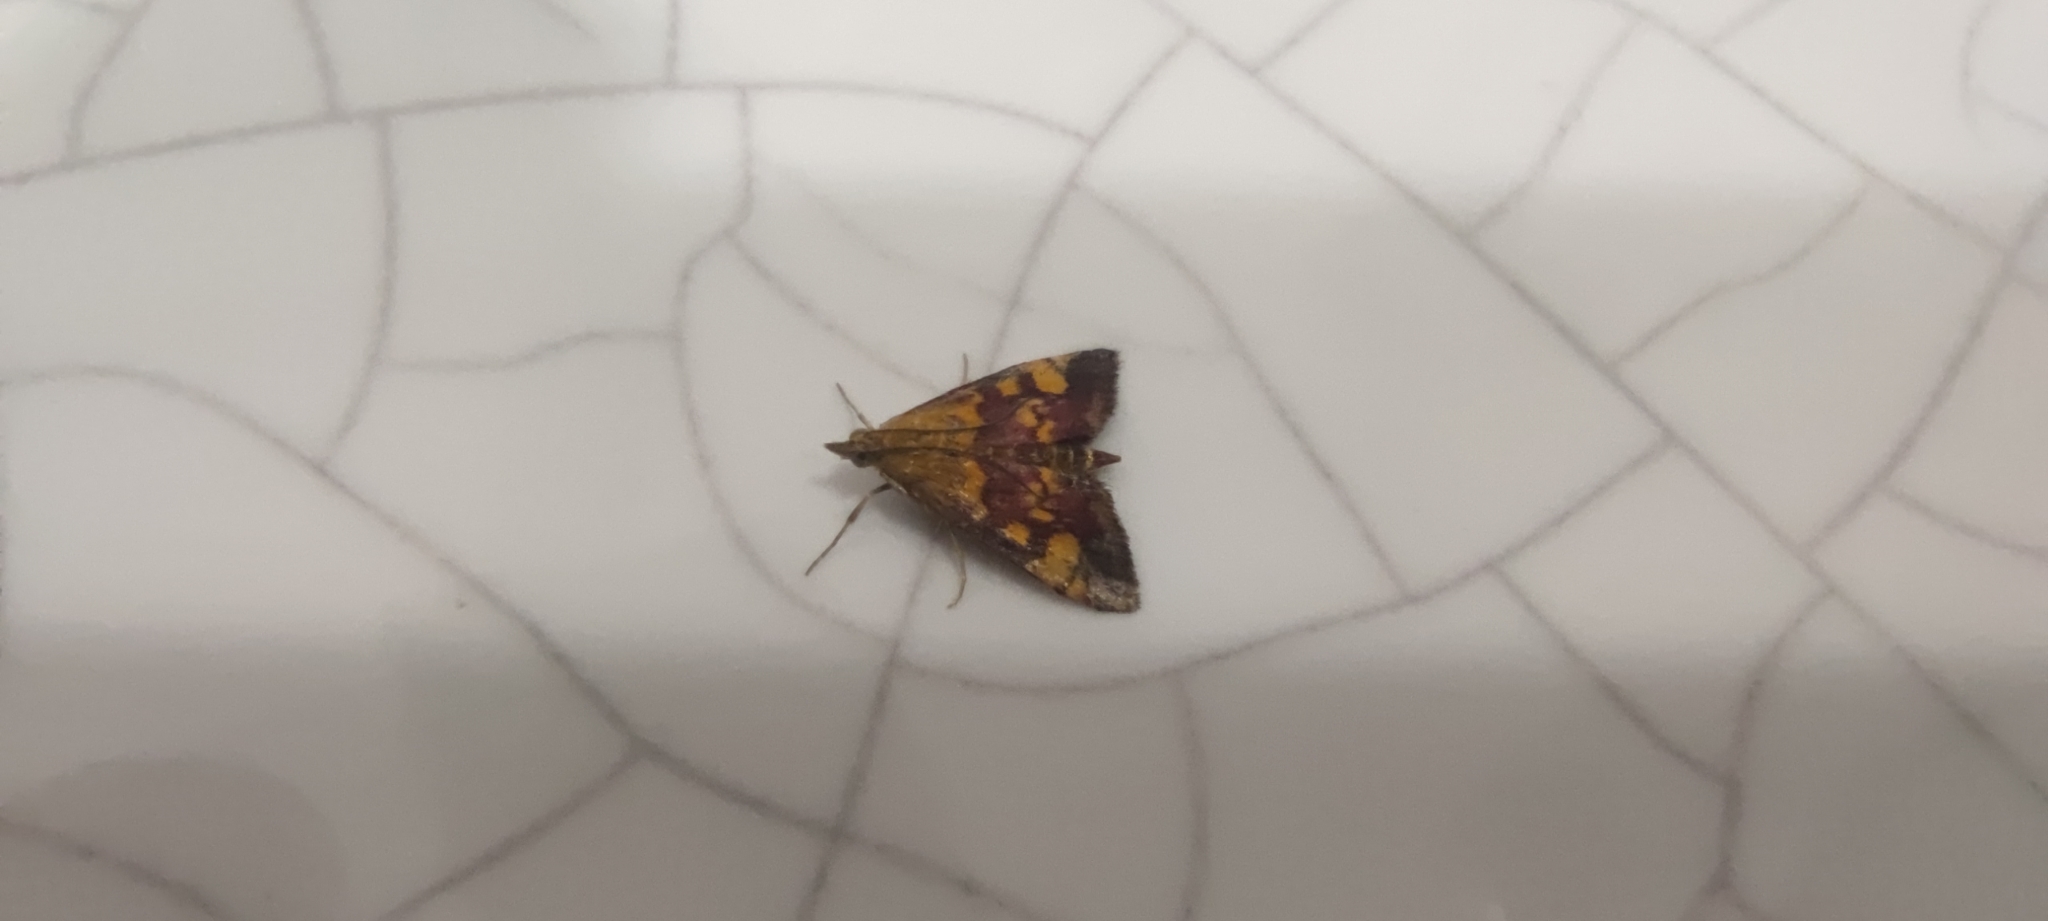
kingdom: Animalia
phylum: Arthropoda
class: Insecta
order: Lepidoptera
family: Crambidae
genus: Pyrausta
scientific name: Pyrausta aurata
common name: Small purple & gold
